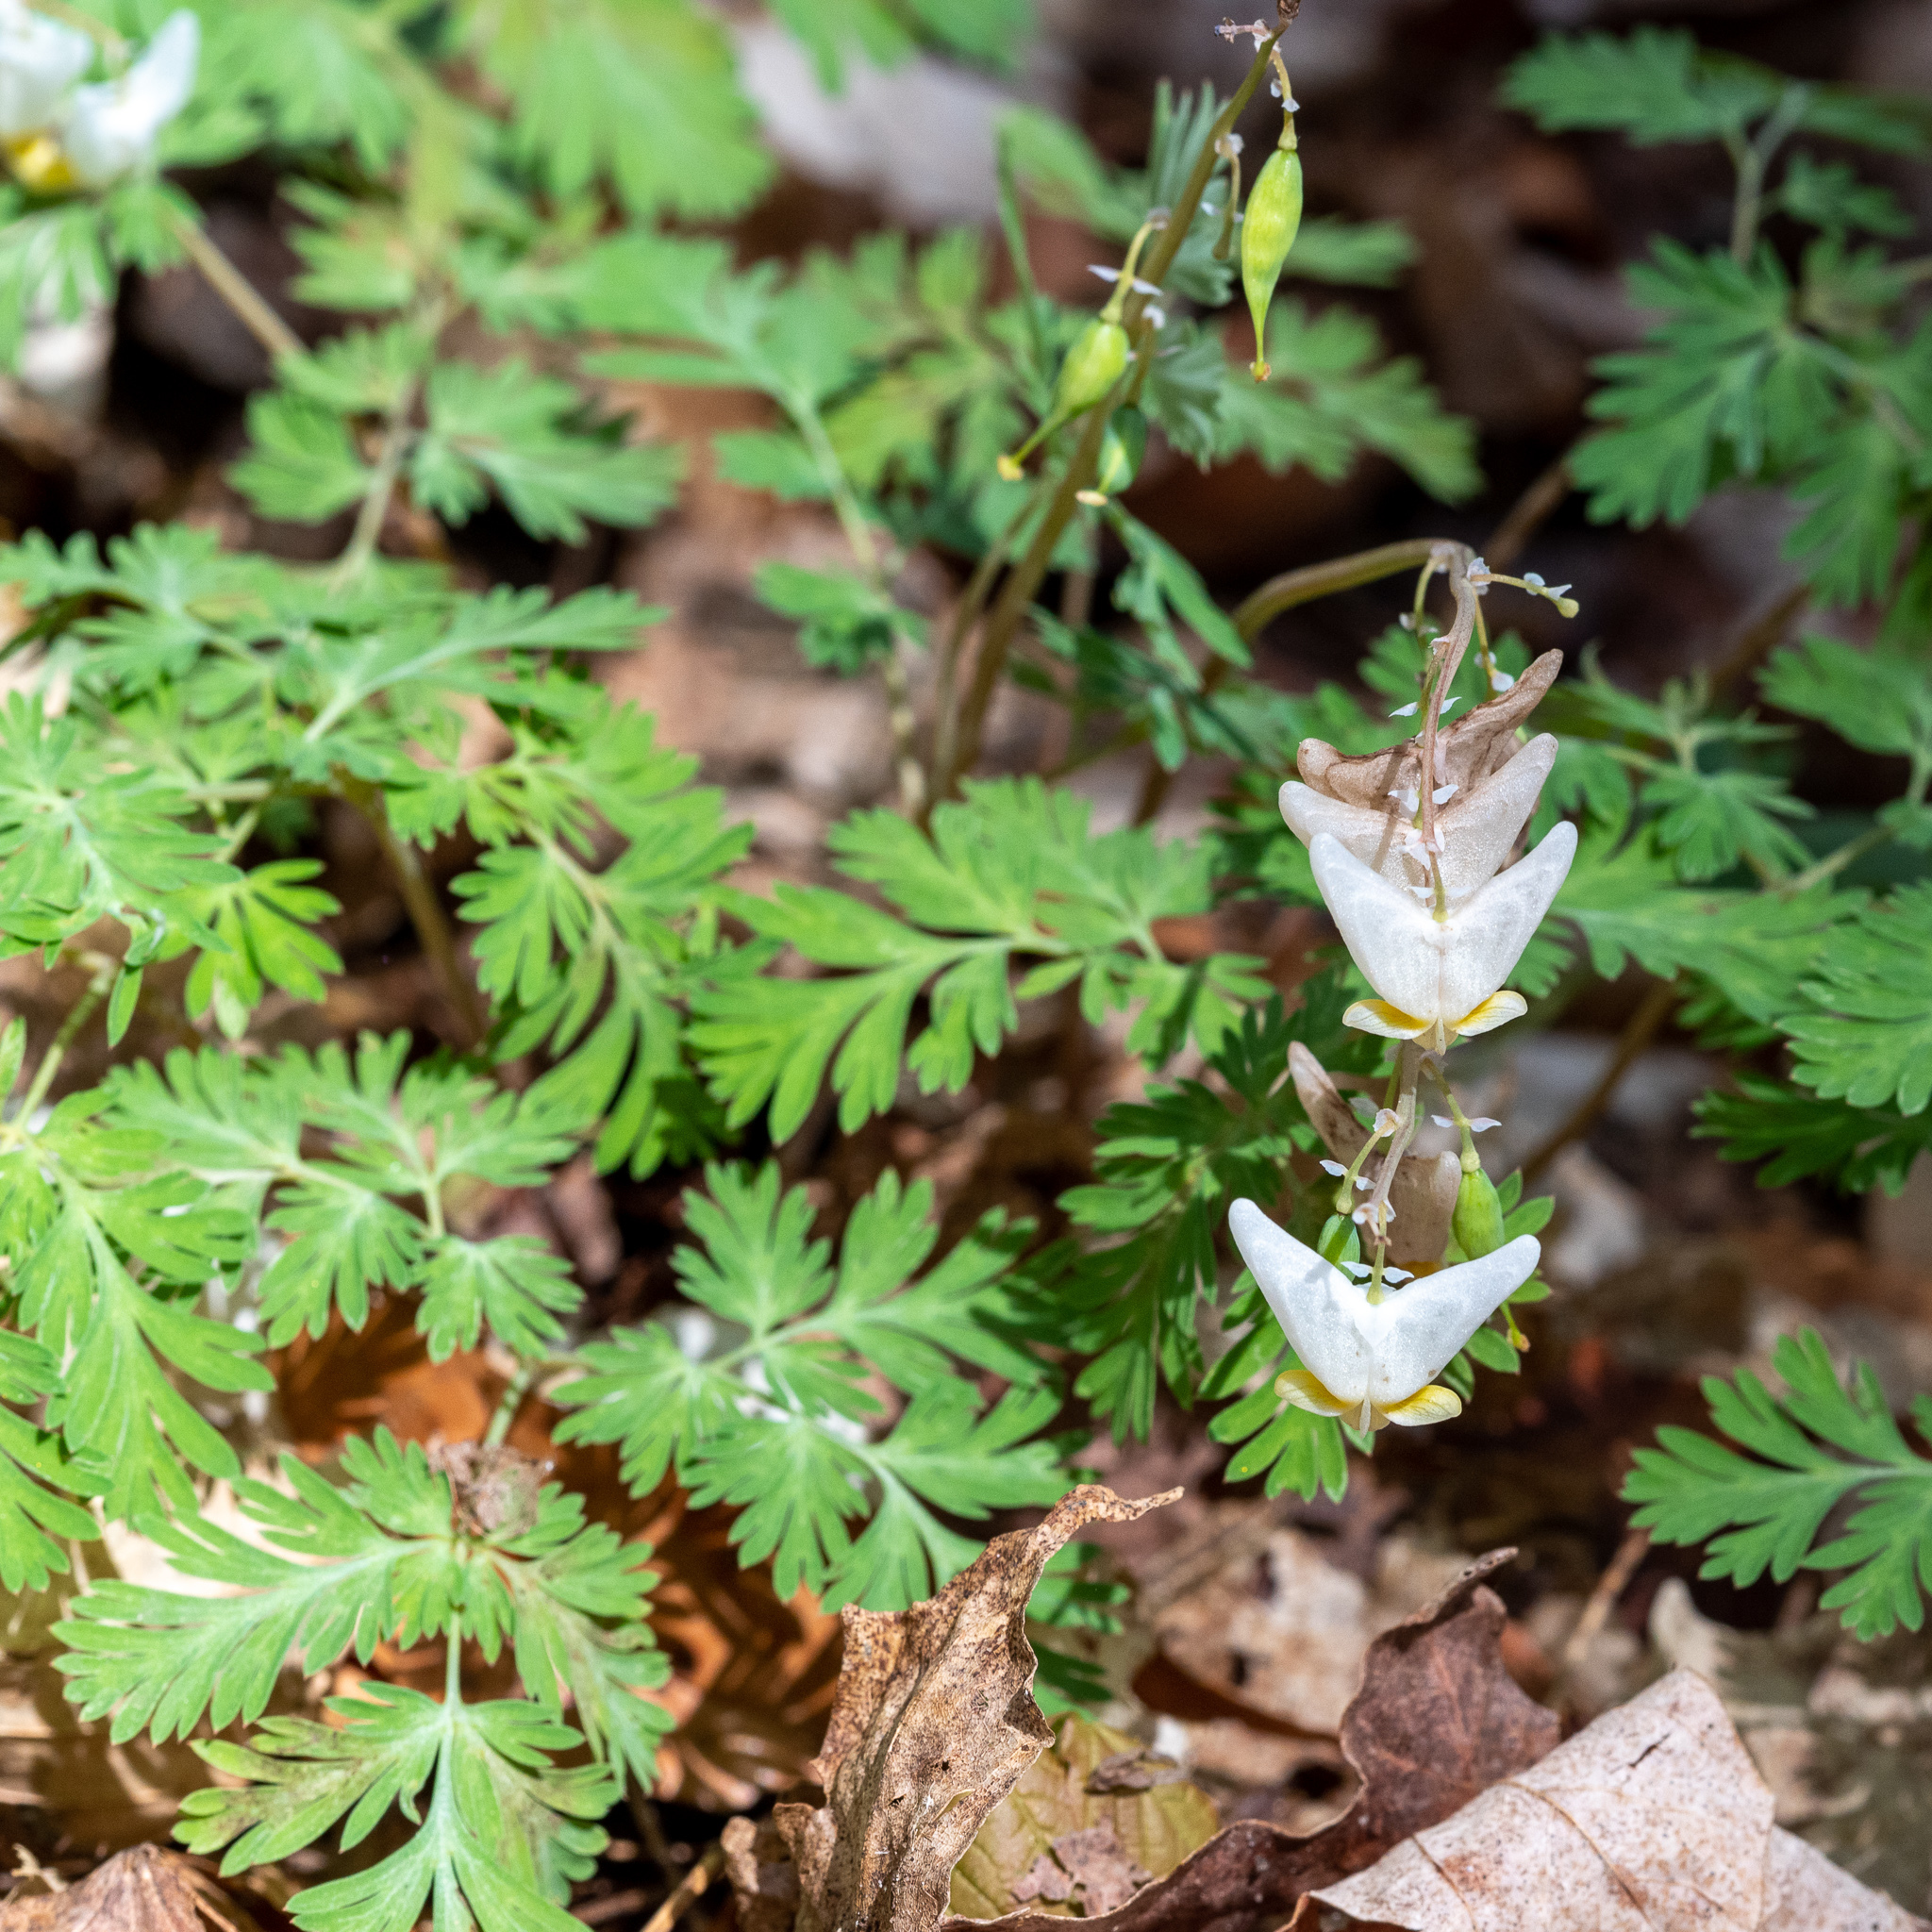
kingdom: Plantae
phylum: Tracheophyta
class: Magnoliopsida
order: Ranunculales
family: Papaveraceae
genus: Dicentra
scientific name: Dicentra cucullaria
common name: Dutchman's breeches
